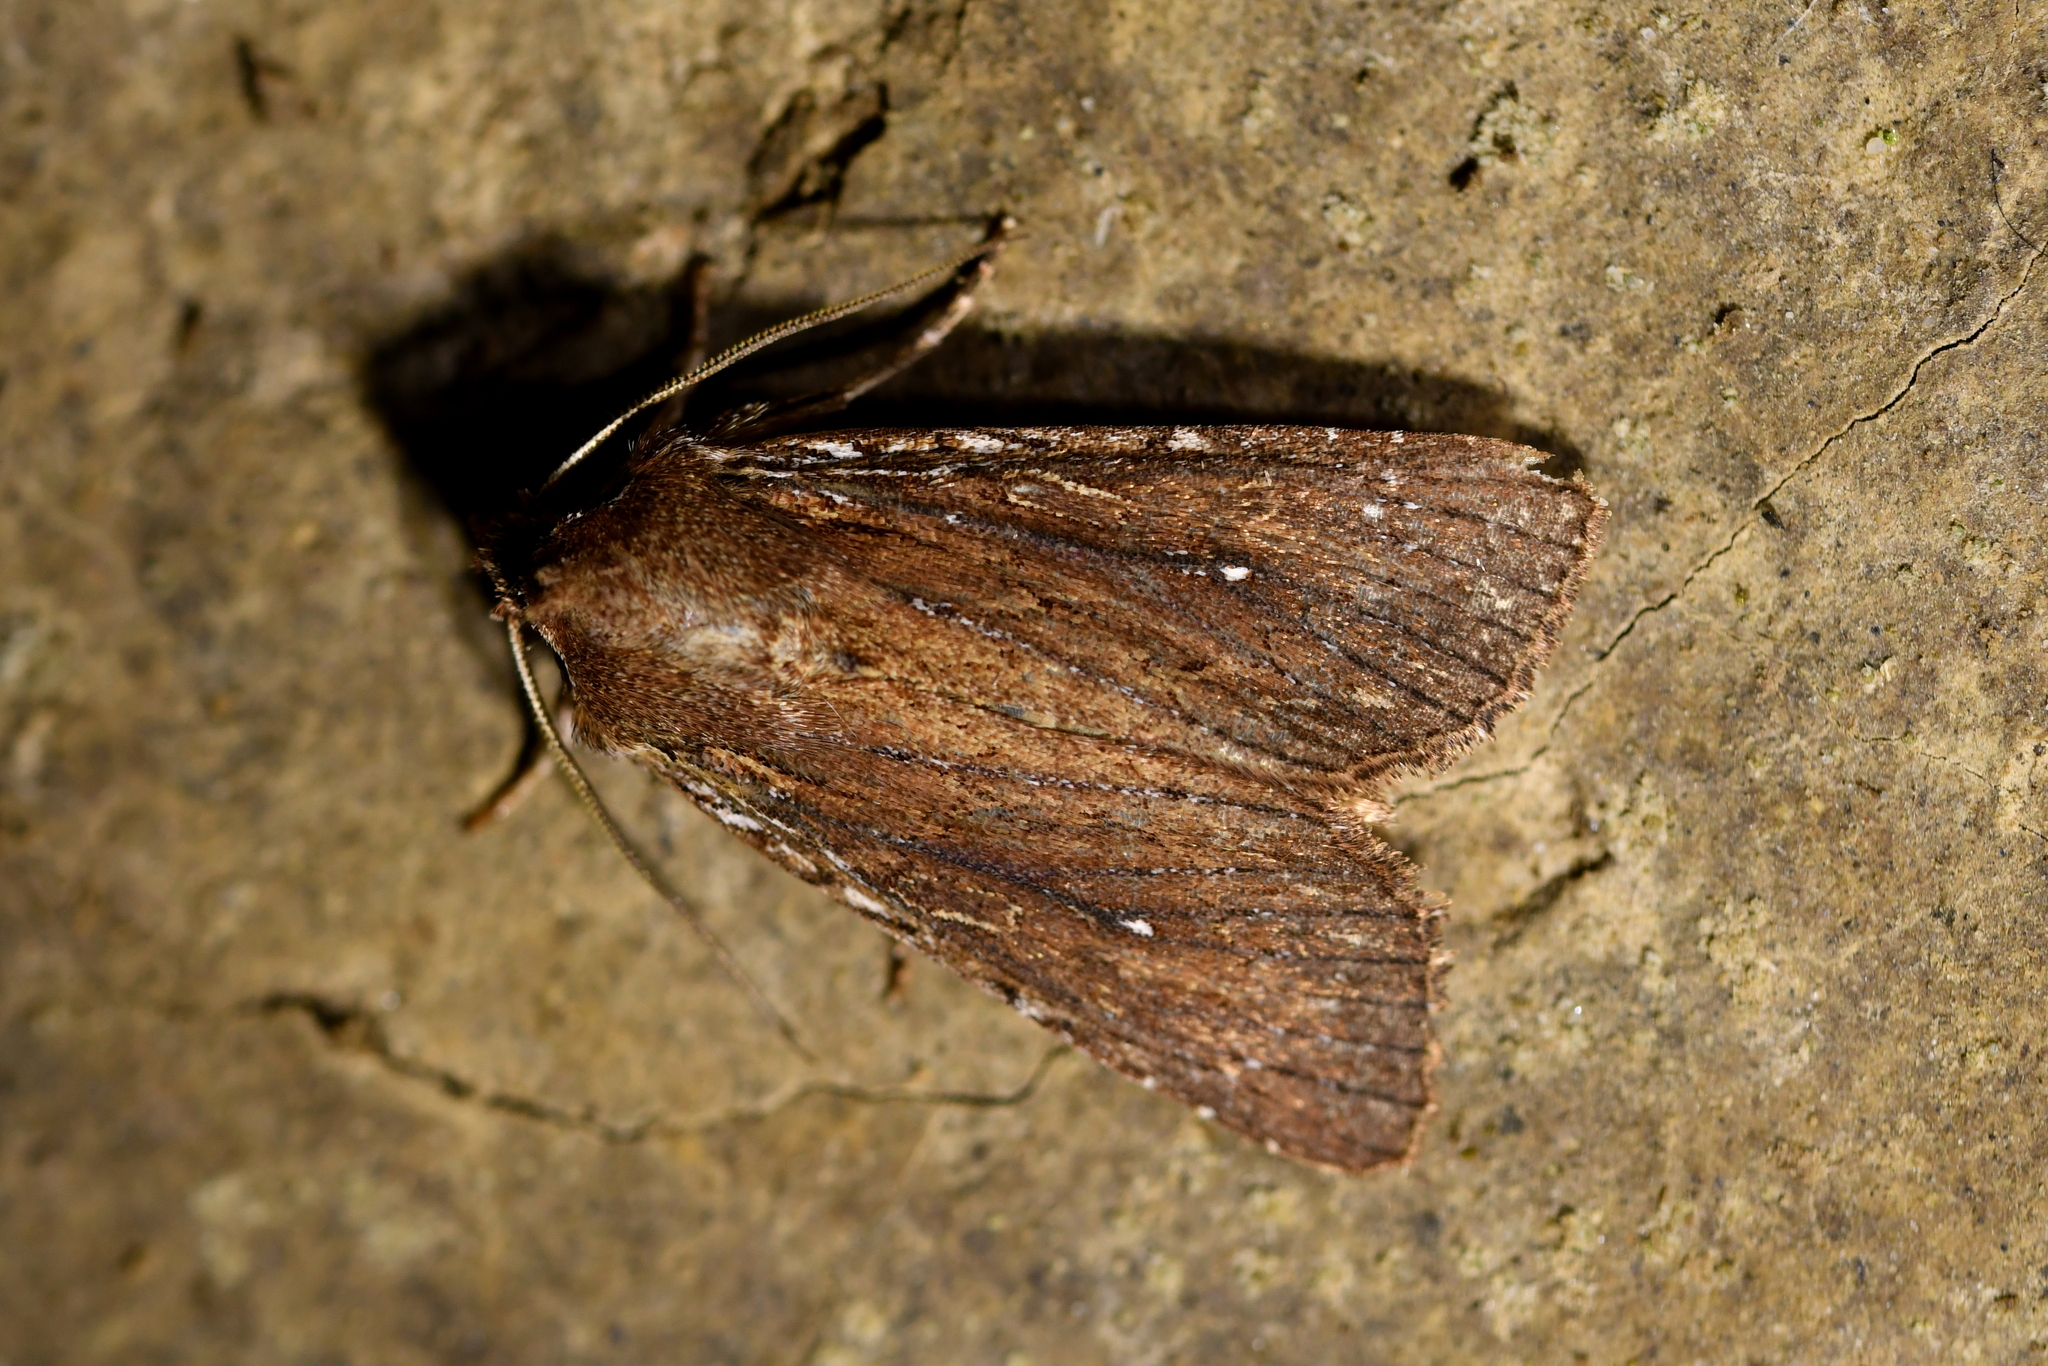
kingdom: Animalia
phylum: Arthropoda
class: Insecta
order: Lepidoptera
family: Noctuidae
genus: Ichneutica
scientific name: Ichneutica
